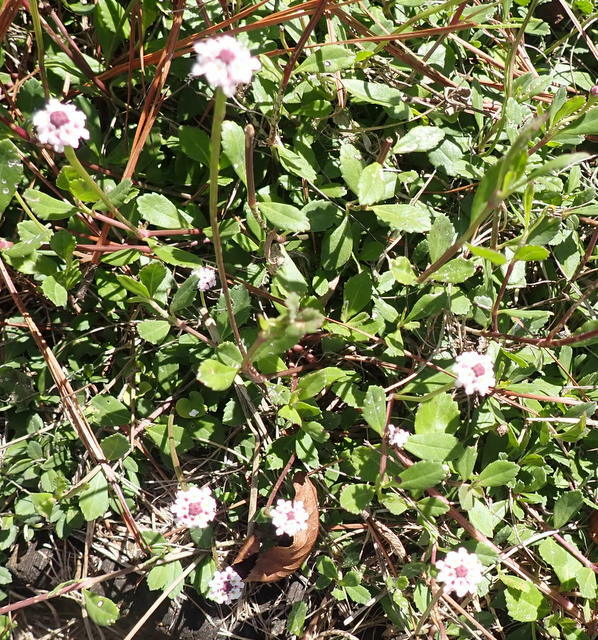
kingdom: Plantae
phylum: Tracheophyta
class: Magnoliopsida
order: Lamiales
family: Verbenaceae
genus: Phyla
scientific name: Phyla nodiflora
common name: Frogfruit
